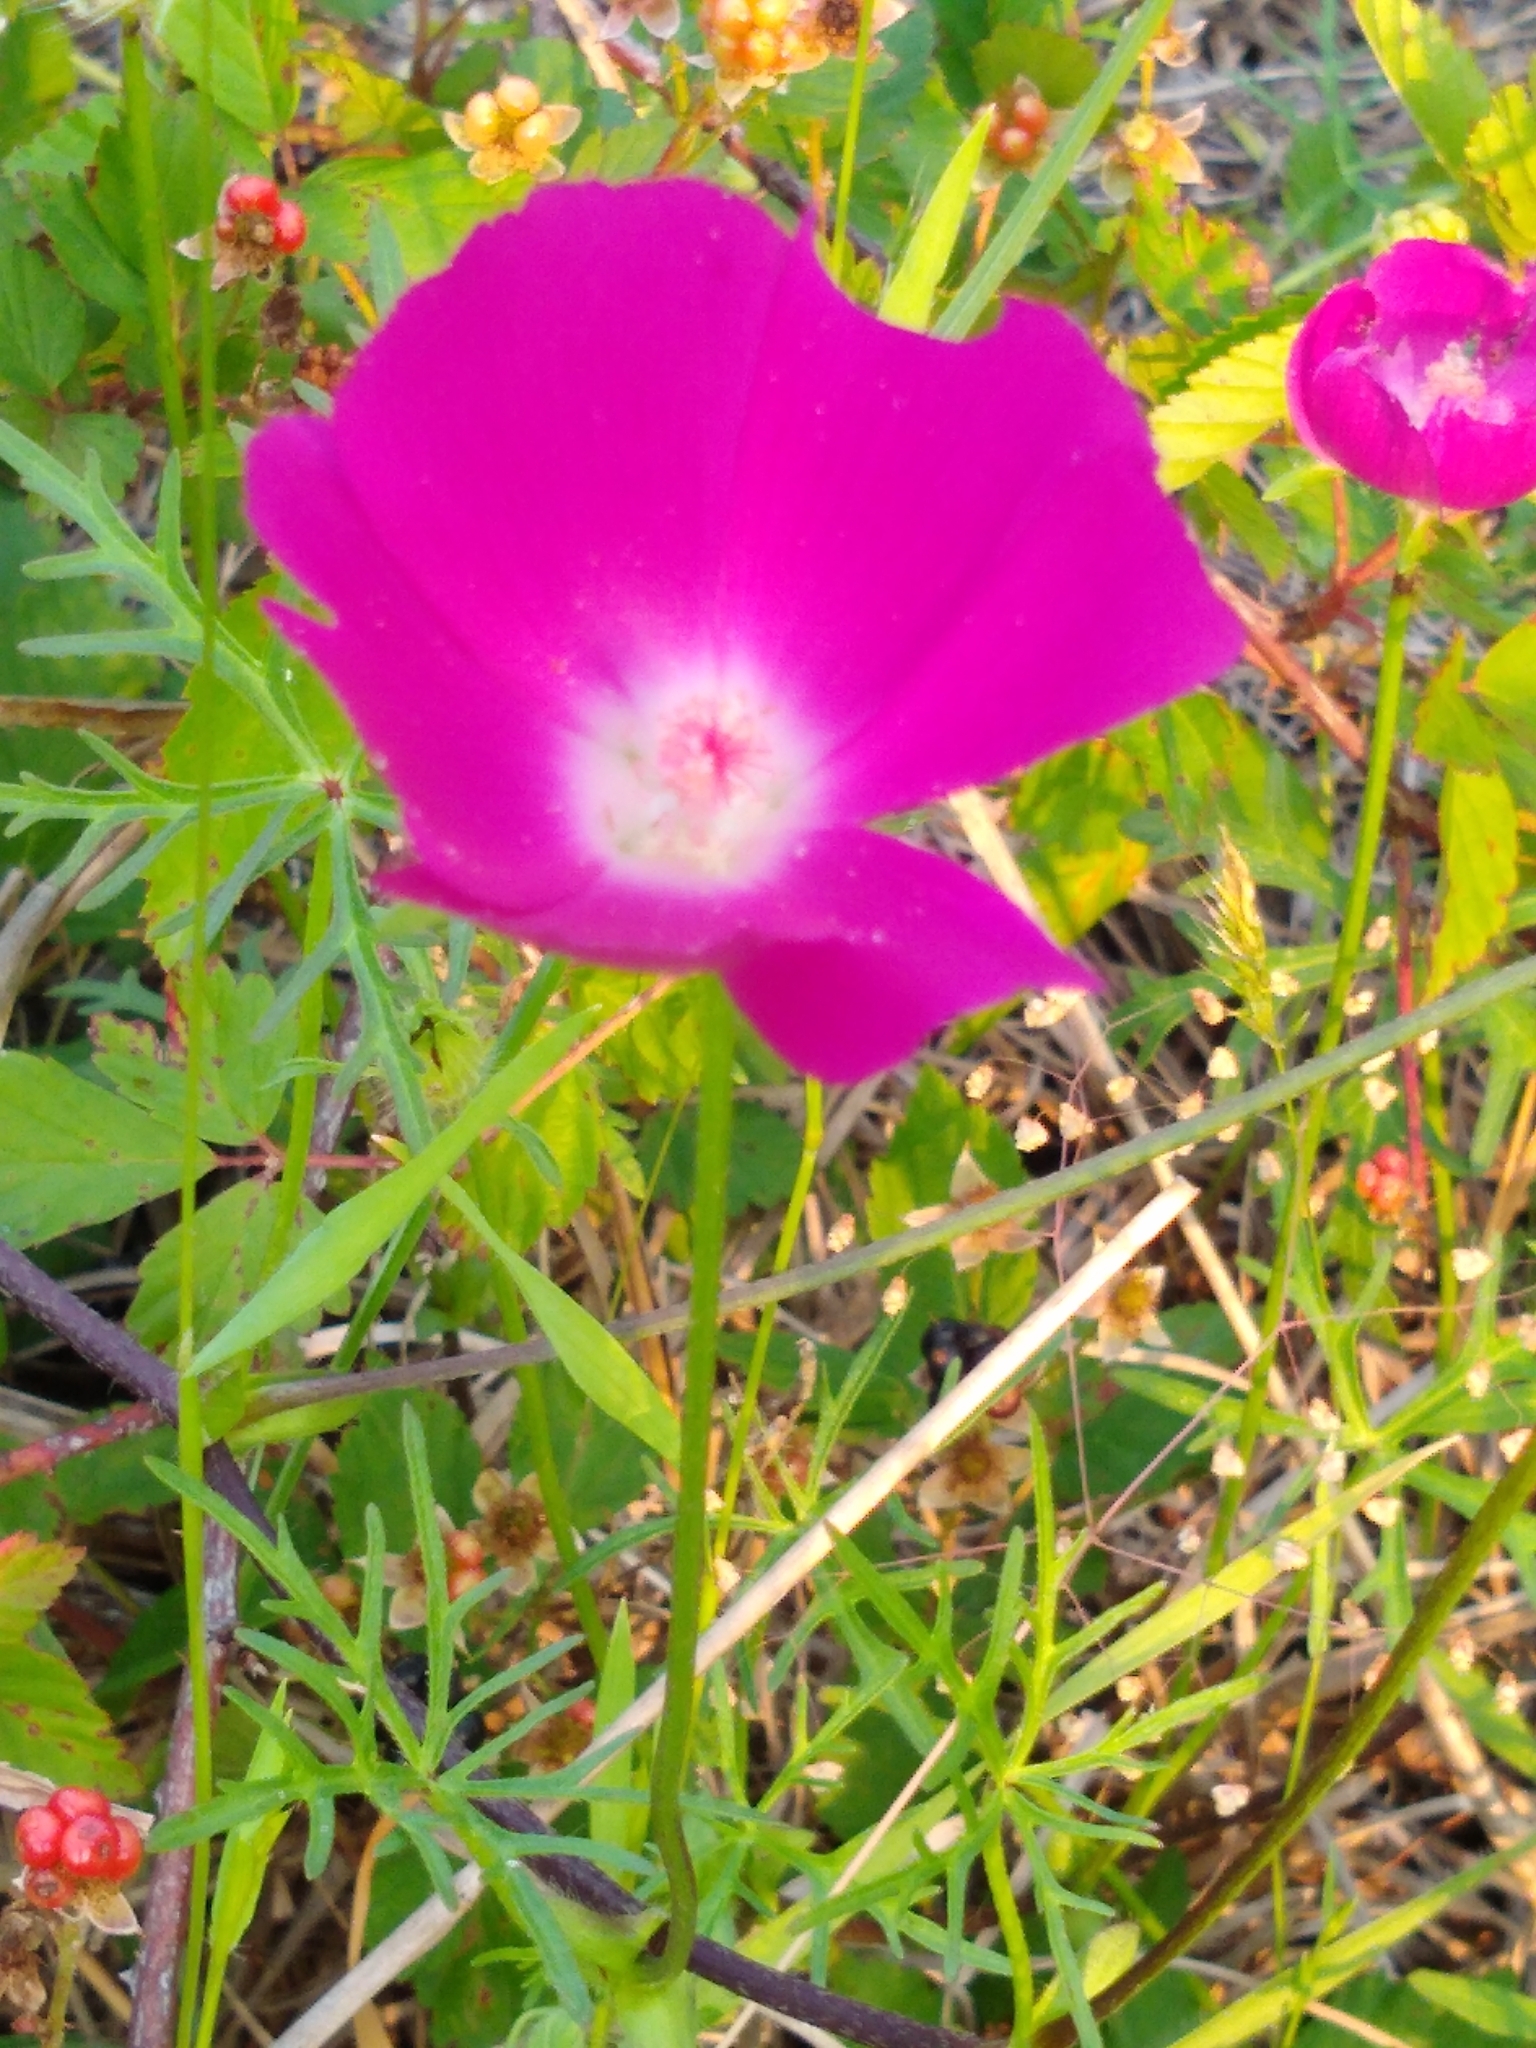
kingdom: Plantae
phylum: Tracheophyta
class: Magnoliopsida
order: Malvales
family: Malvaceae
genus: Callirhoe
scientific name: Callirhoe involucrata
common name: Purple poppy-mallow
